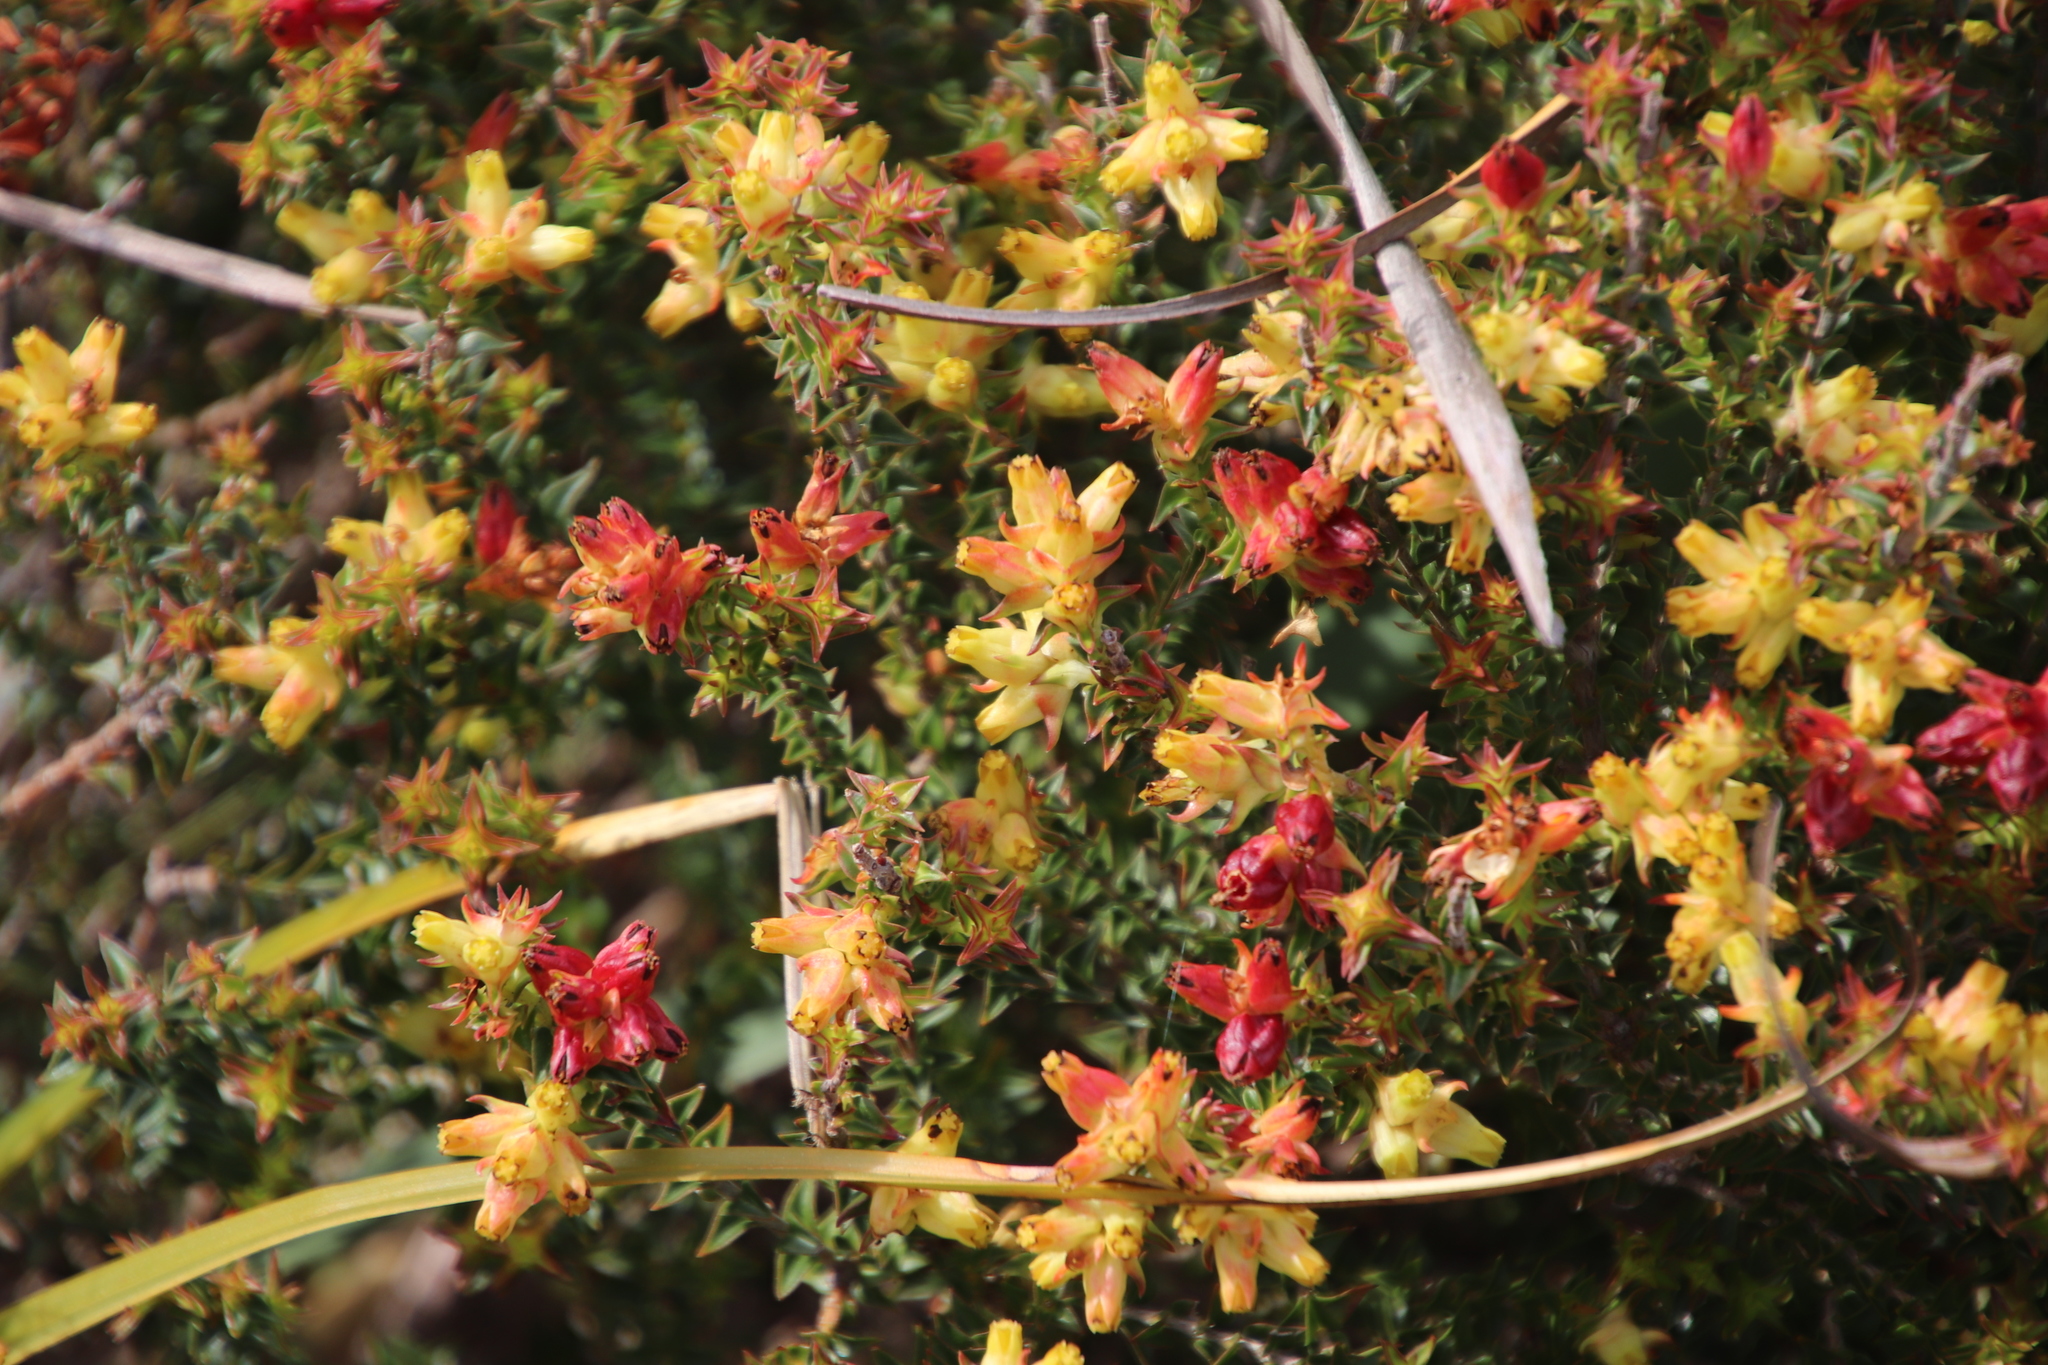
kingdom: Plantae
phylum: Tracheophyta
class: Magnoliopsida
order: Myrtales
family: Penaeaceae
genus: Penaea
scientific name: Penaea mucronata
